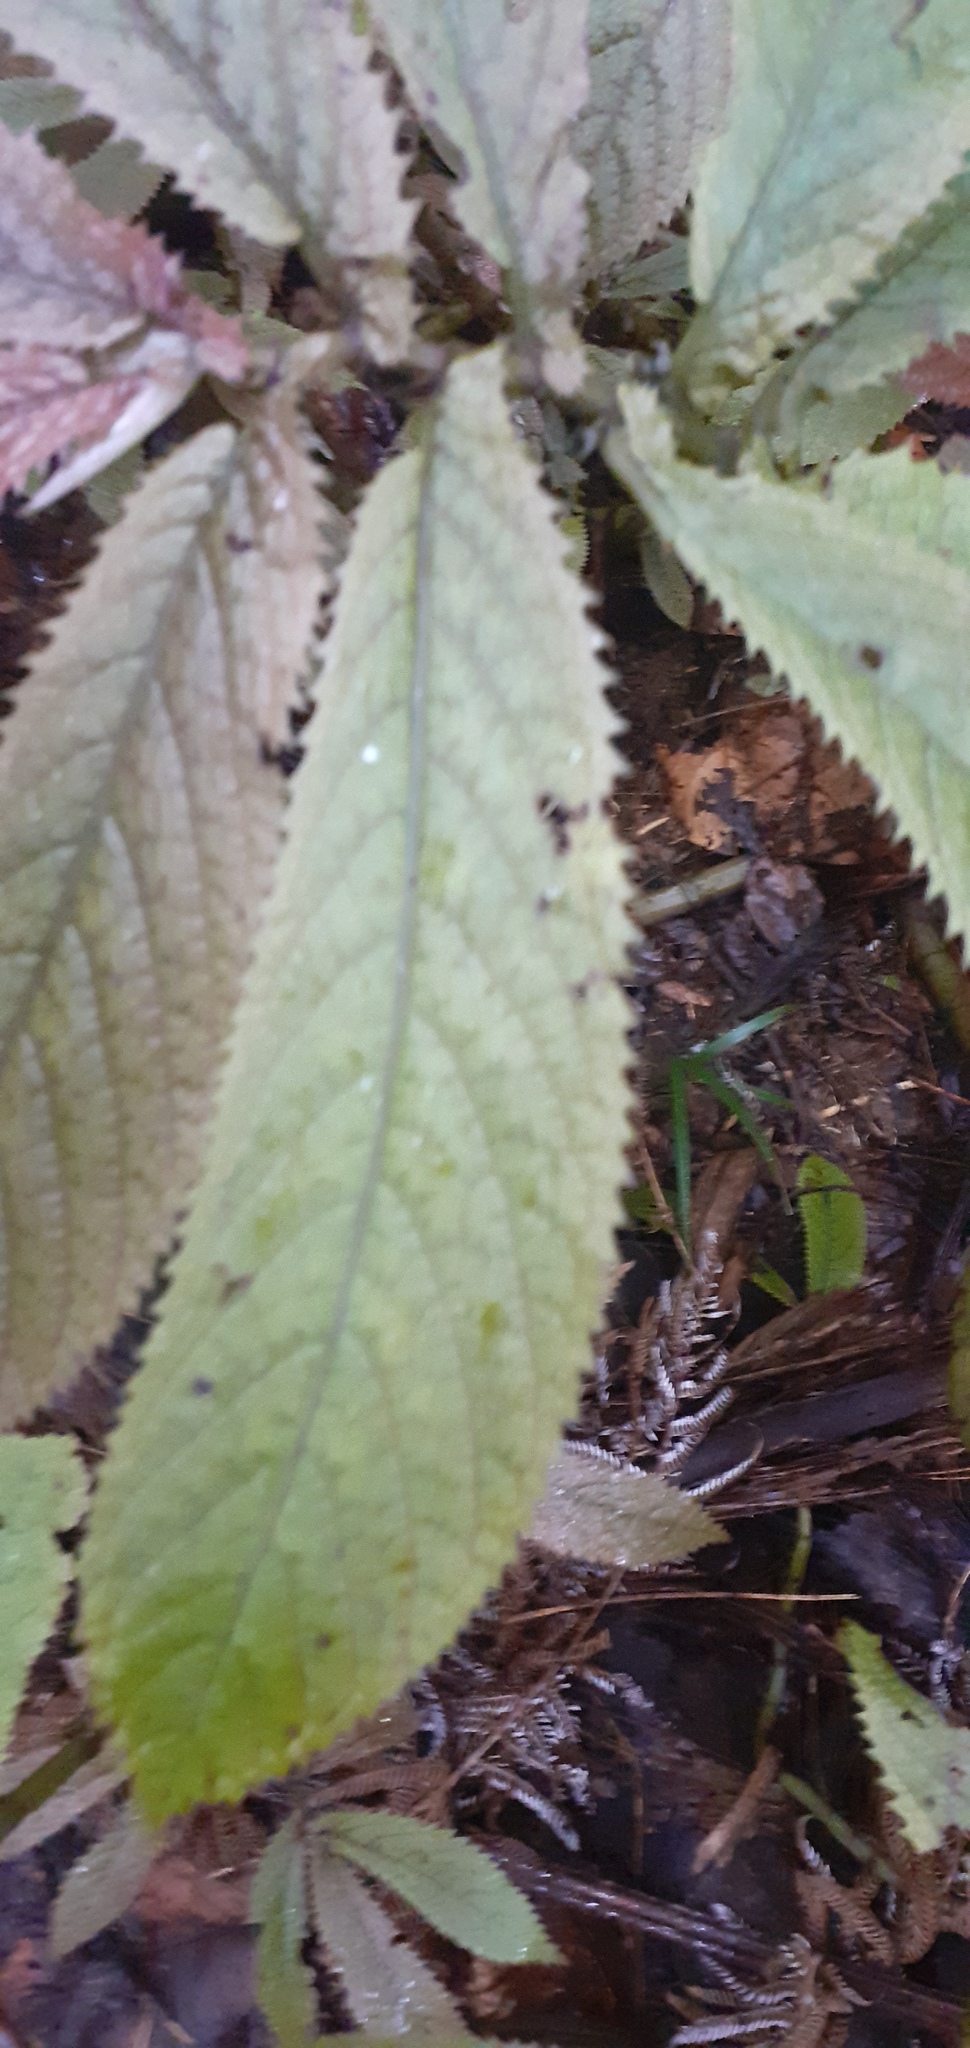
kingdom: Plantae
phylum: Tracheophyta
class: Magnoliopsida
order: Rosales
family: Urticaceae
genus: Elatostema
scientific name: Elatostema rugosum
